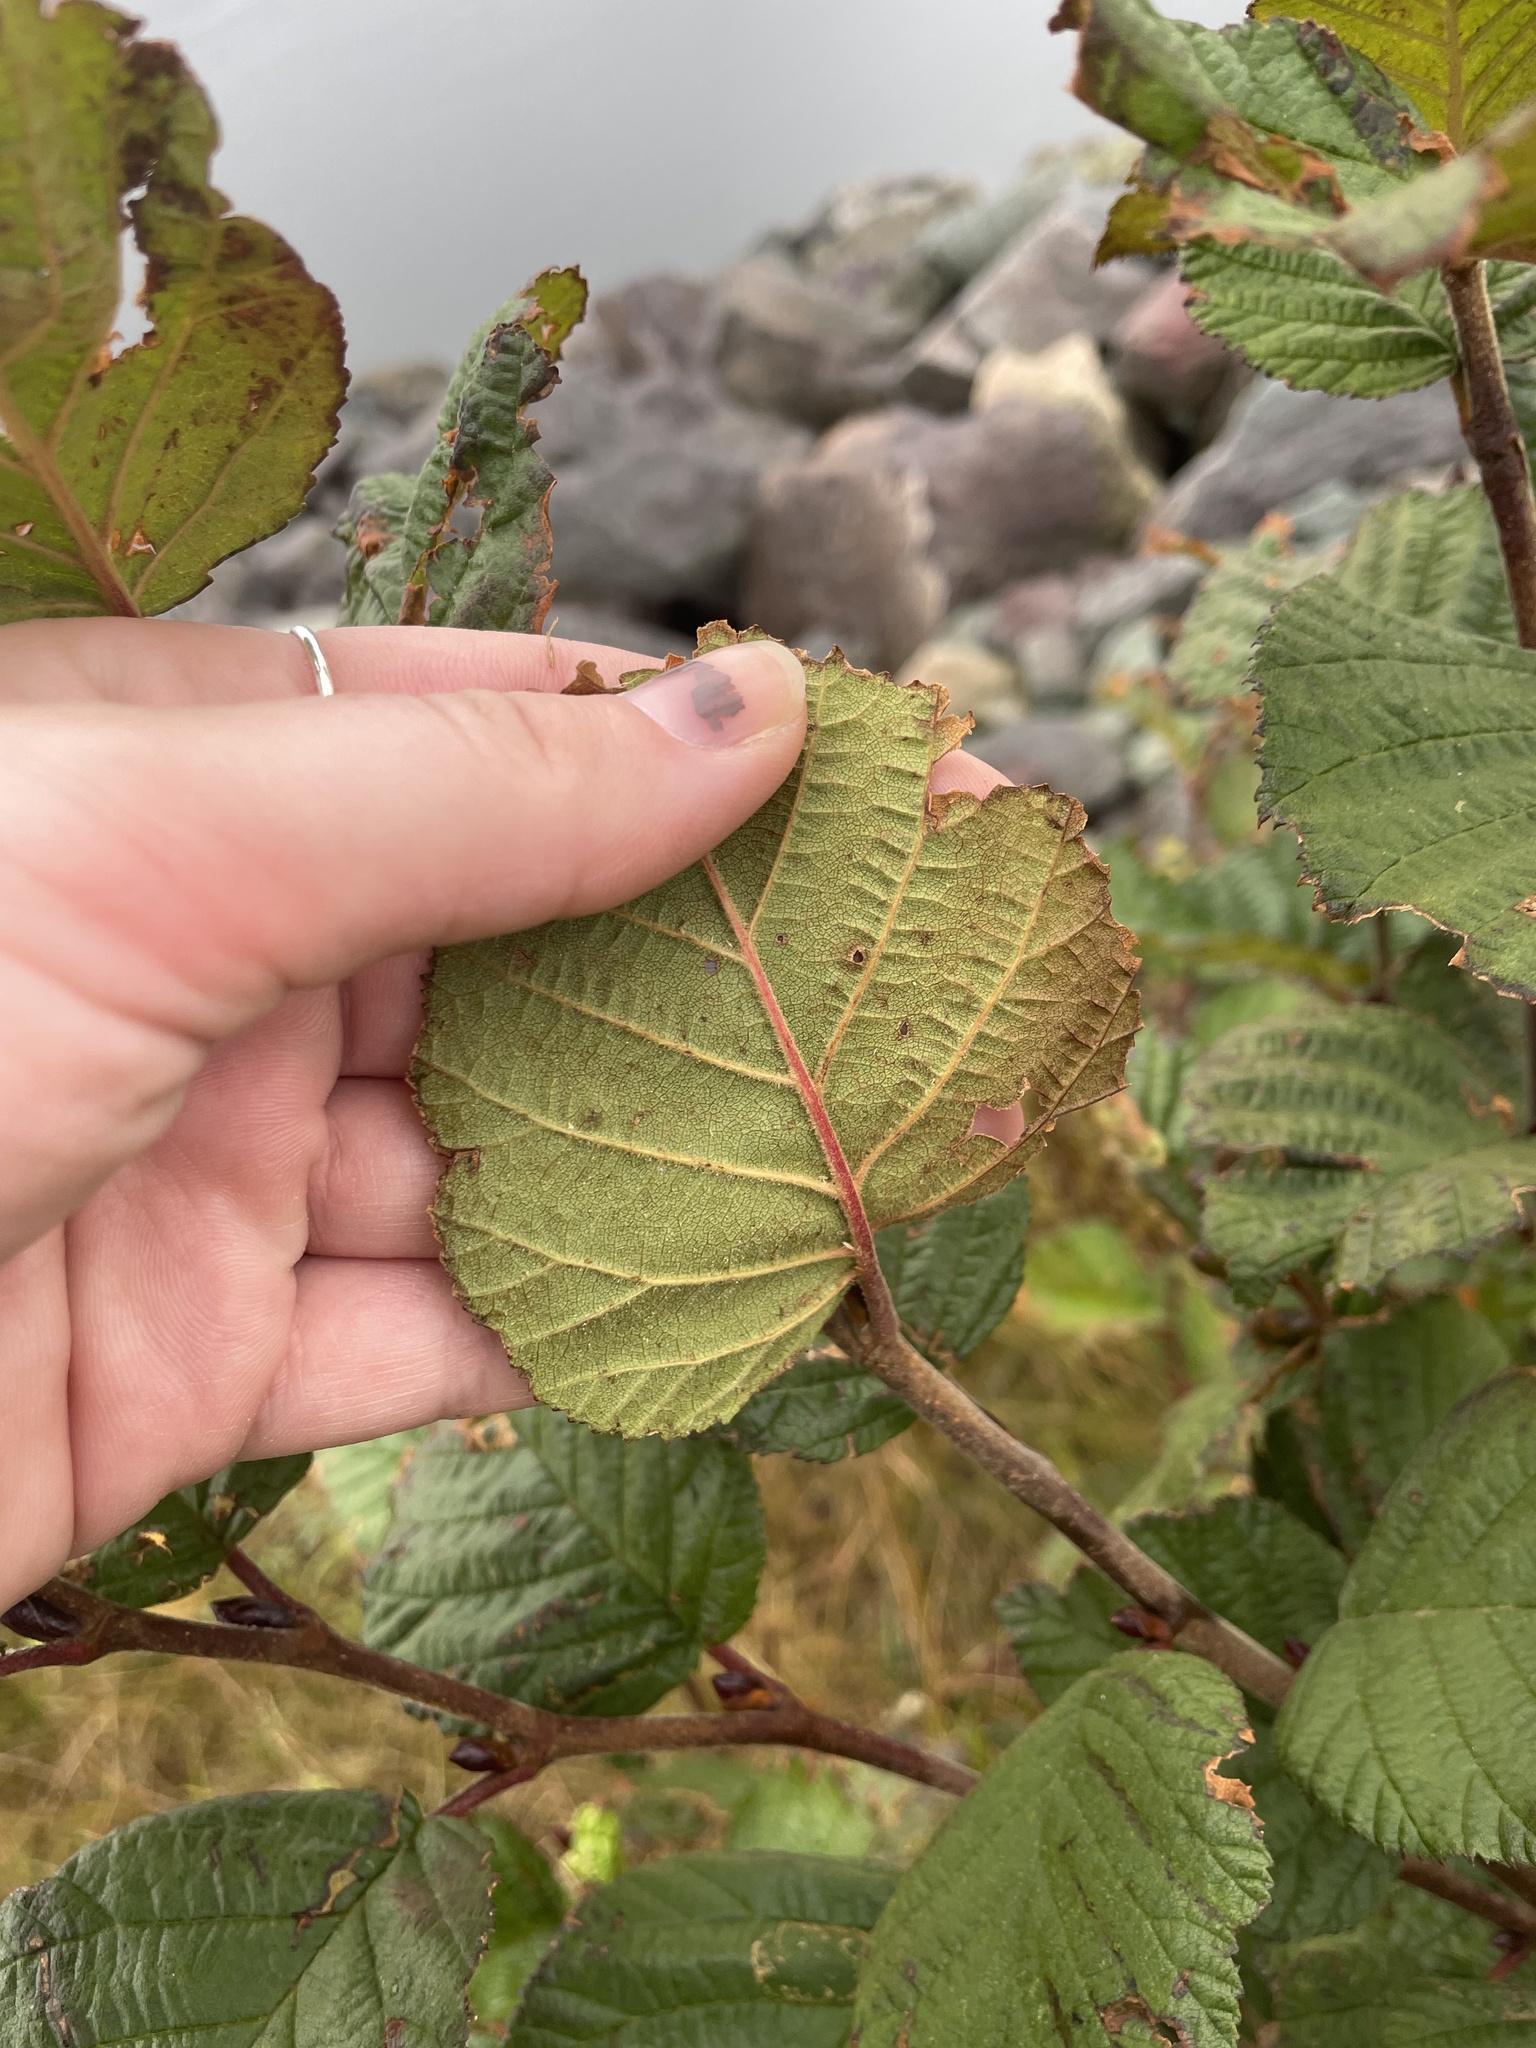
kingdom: Plantae
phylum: Tracheophyta
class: Magnoliopsida
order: Fagales
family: Betulaceae
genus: Alnus
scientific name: Alnus alnobetula
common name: Green alder
